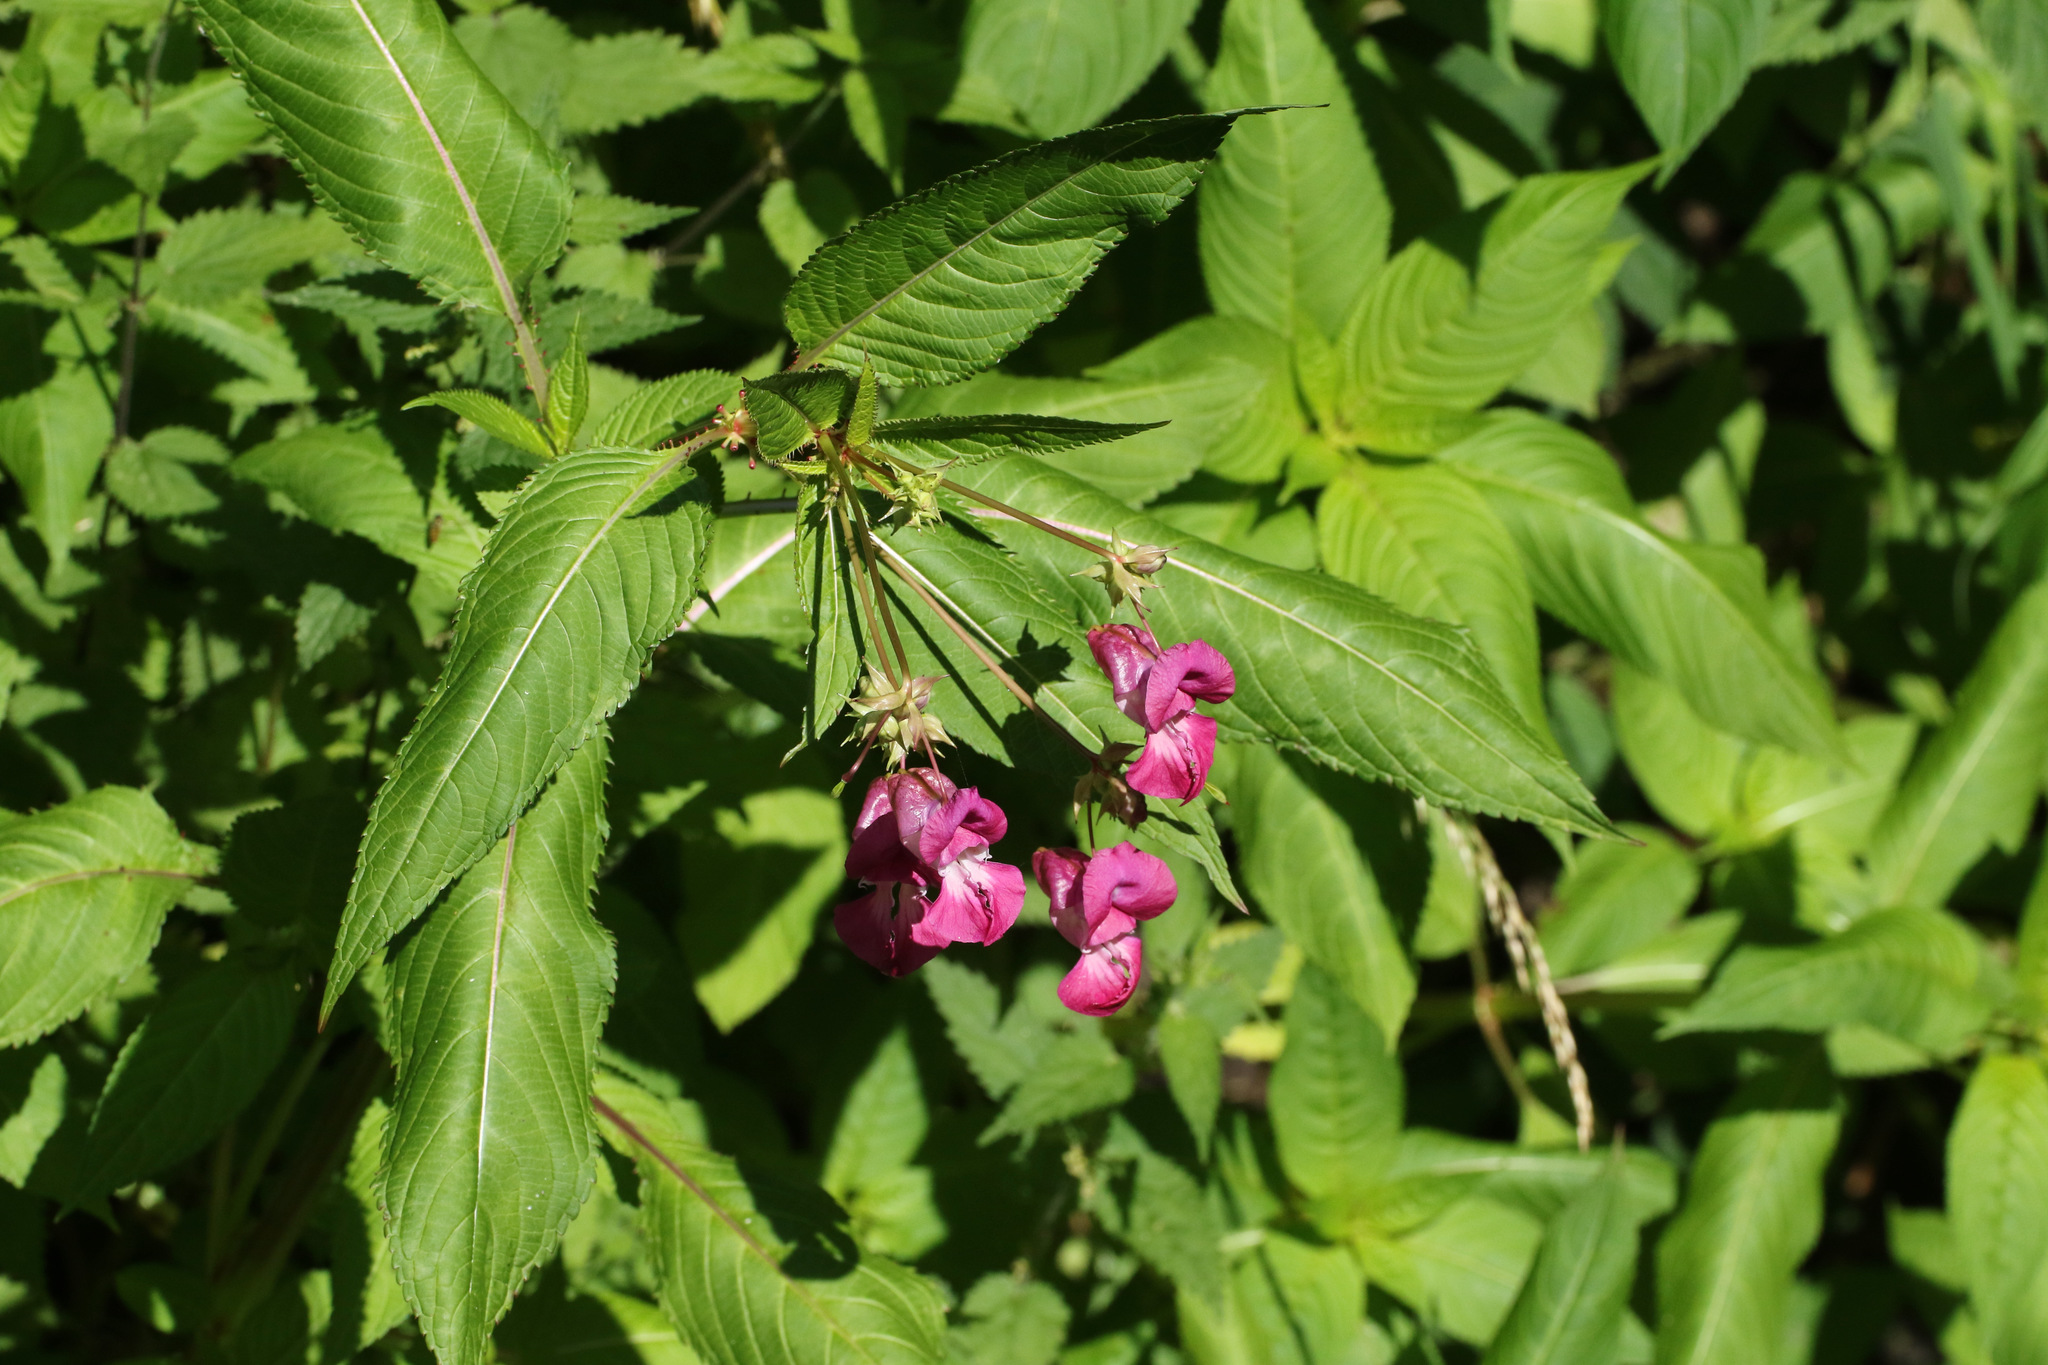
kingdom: Plantae
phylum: Tracheophyta
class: Magnoliopsida
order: Ericales
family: Balsaminaceae
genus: Impatiens
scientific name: Impatiens glandulifera
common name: Himalayan balsam
